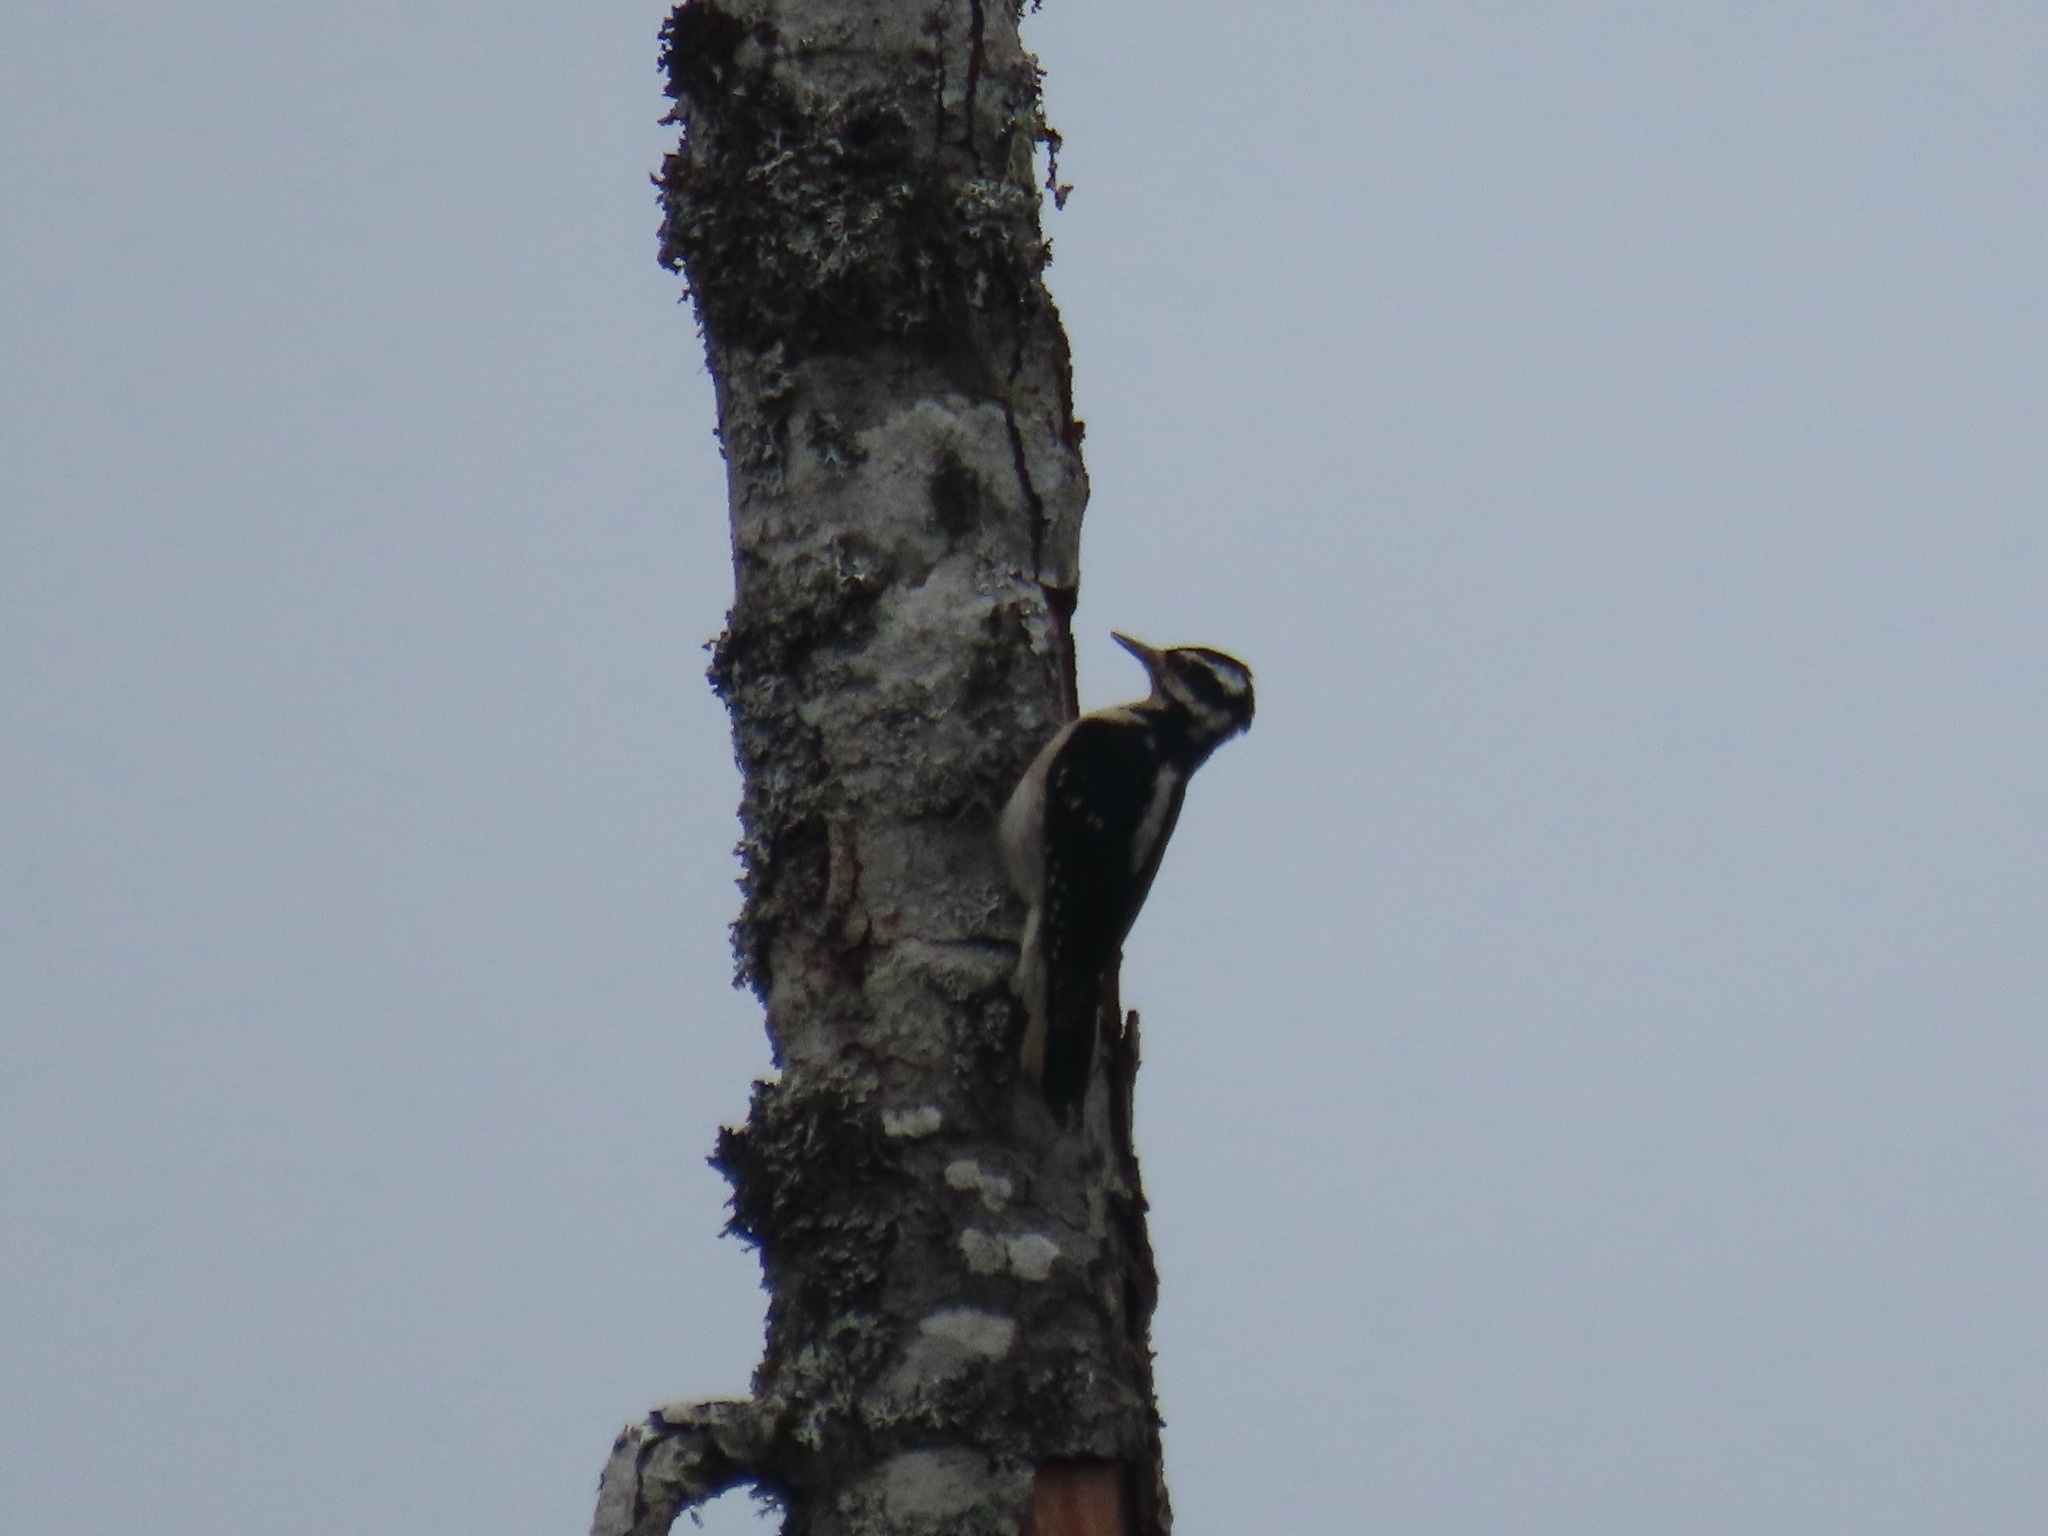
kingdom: Animalia
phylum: Chordata
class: Aves
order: Piciformes
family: Picidae
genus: Leuconotopicus
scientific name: Leuconotopicus villosus
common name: Hairy woodpecker
